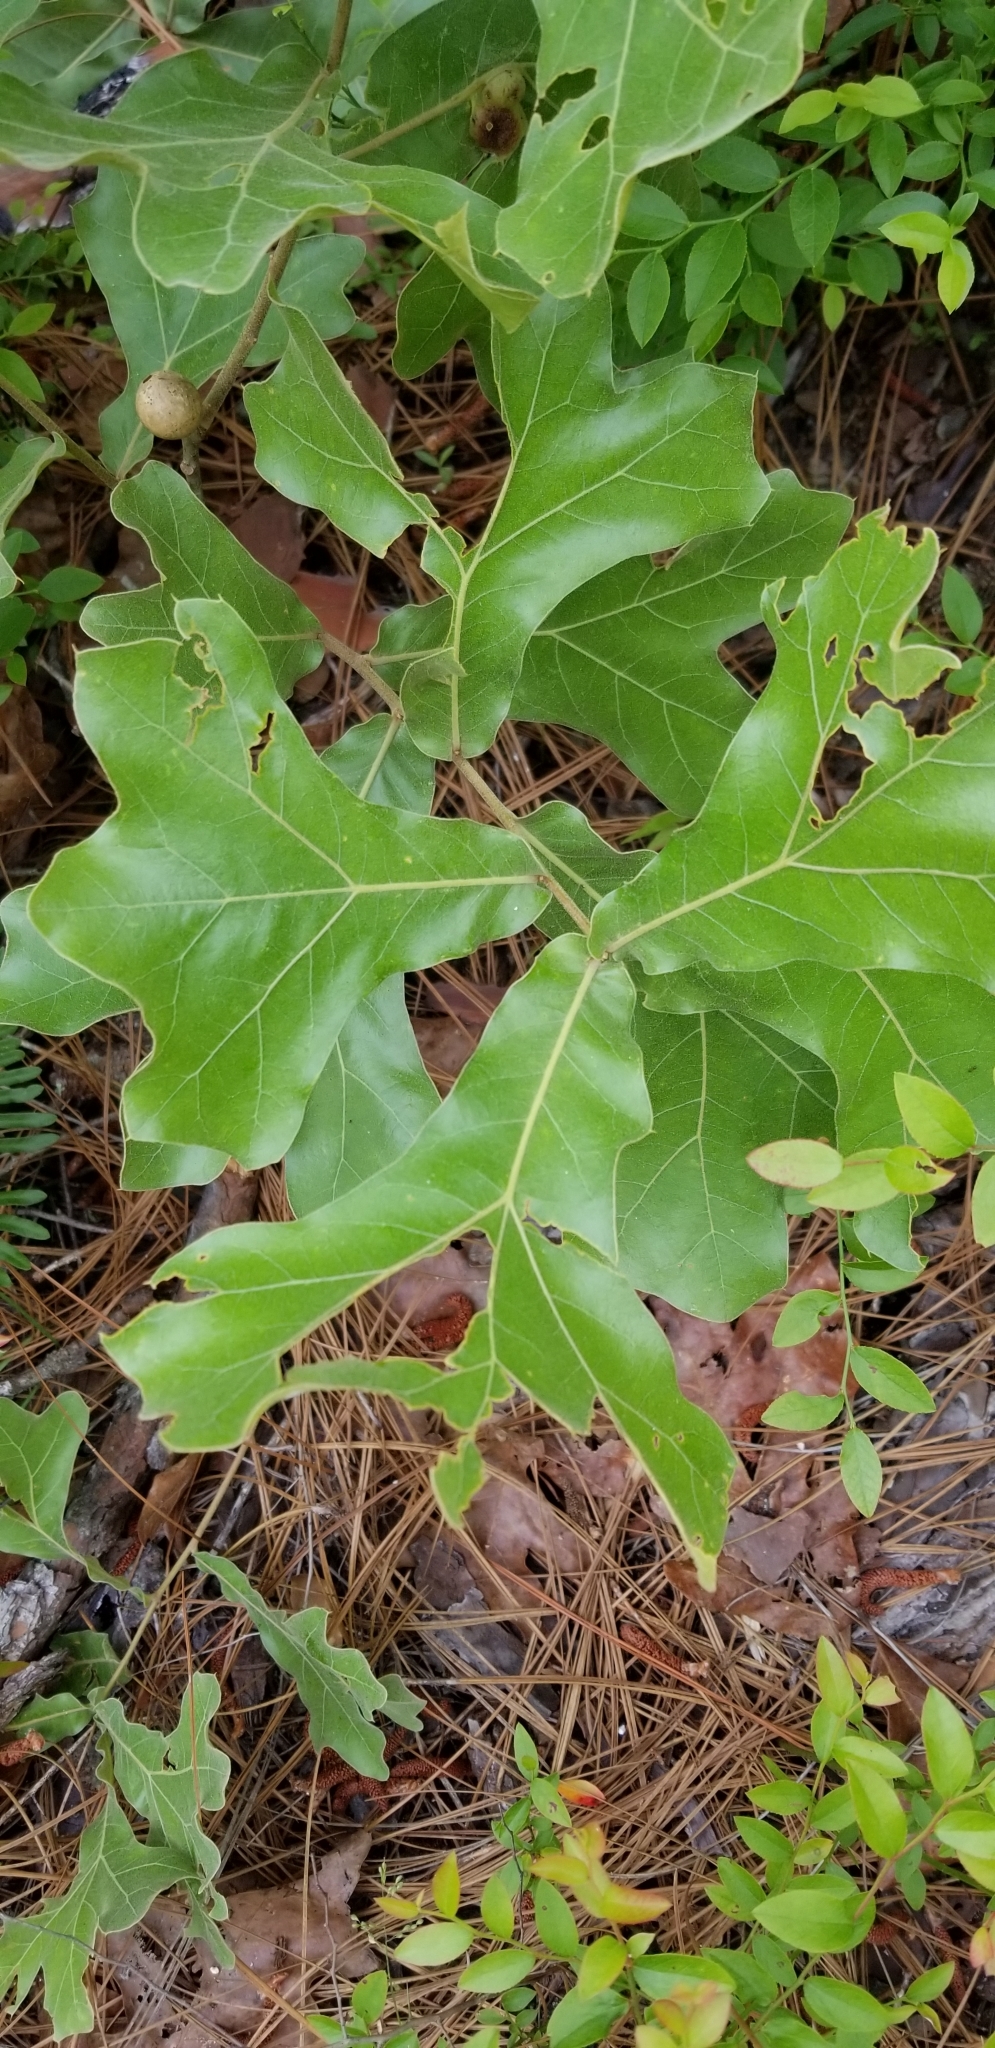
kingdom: Plantae
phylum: Tracheophyta
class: Magnoliopsida
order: Fagales
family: Fagaceae
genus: Quercus
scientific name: Quercus marilandica
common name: Blackjack oak
